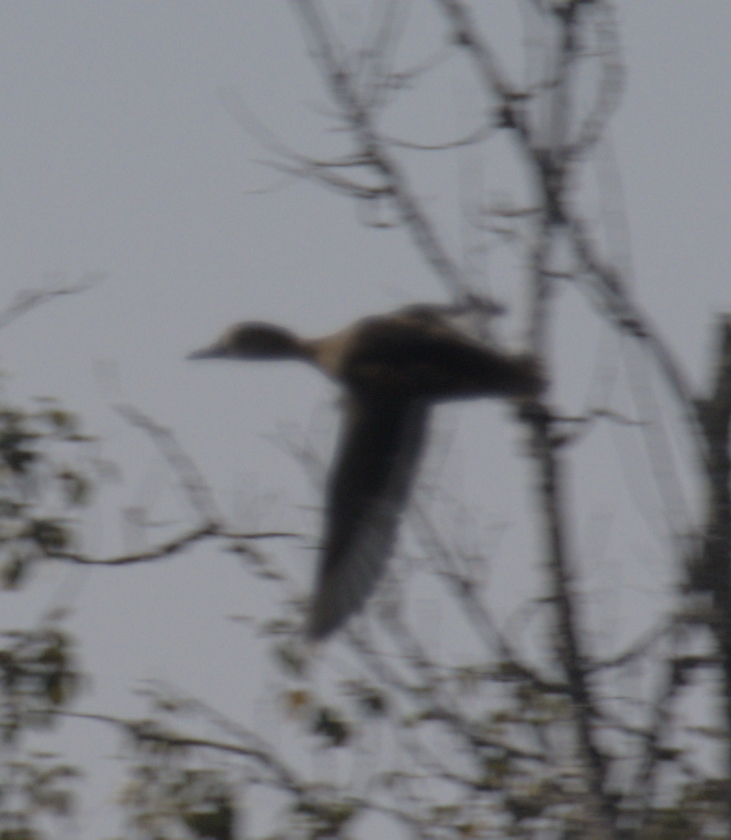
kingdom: Animalia
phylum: Chordata
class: Aves
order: Anseriformes
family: Anatidae
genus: Aythya
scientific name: Aythya americana
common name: Redhead
